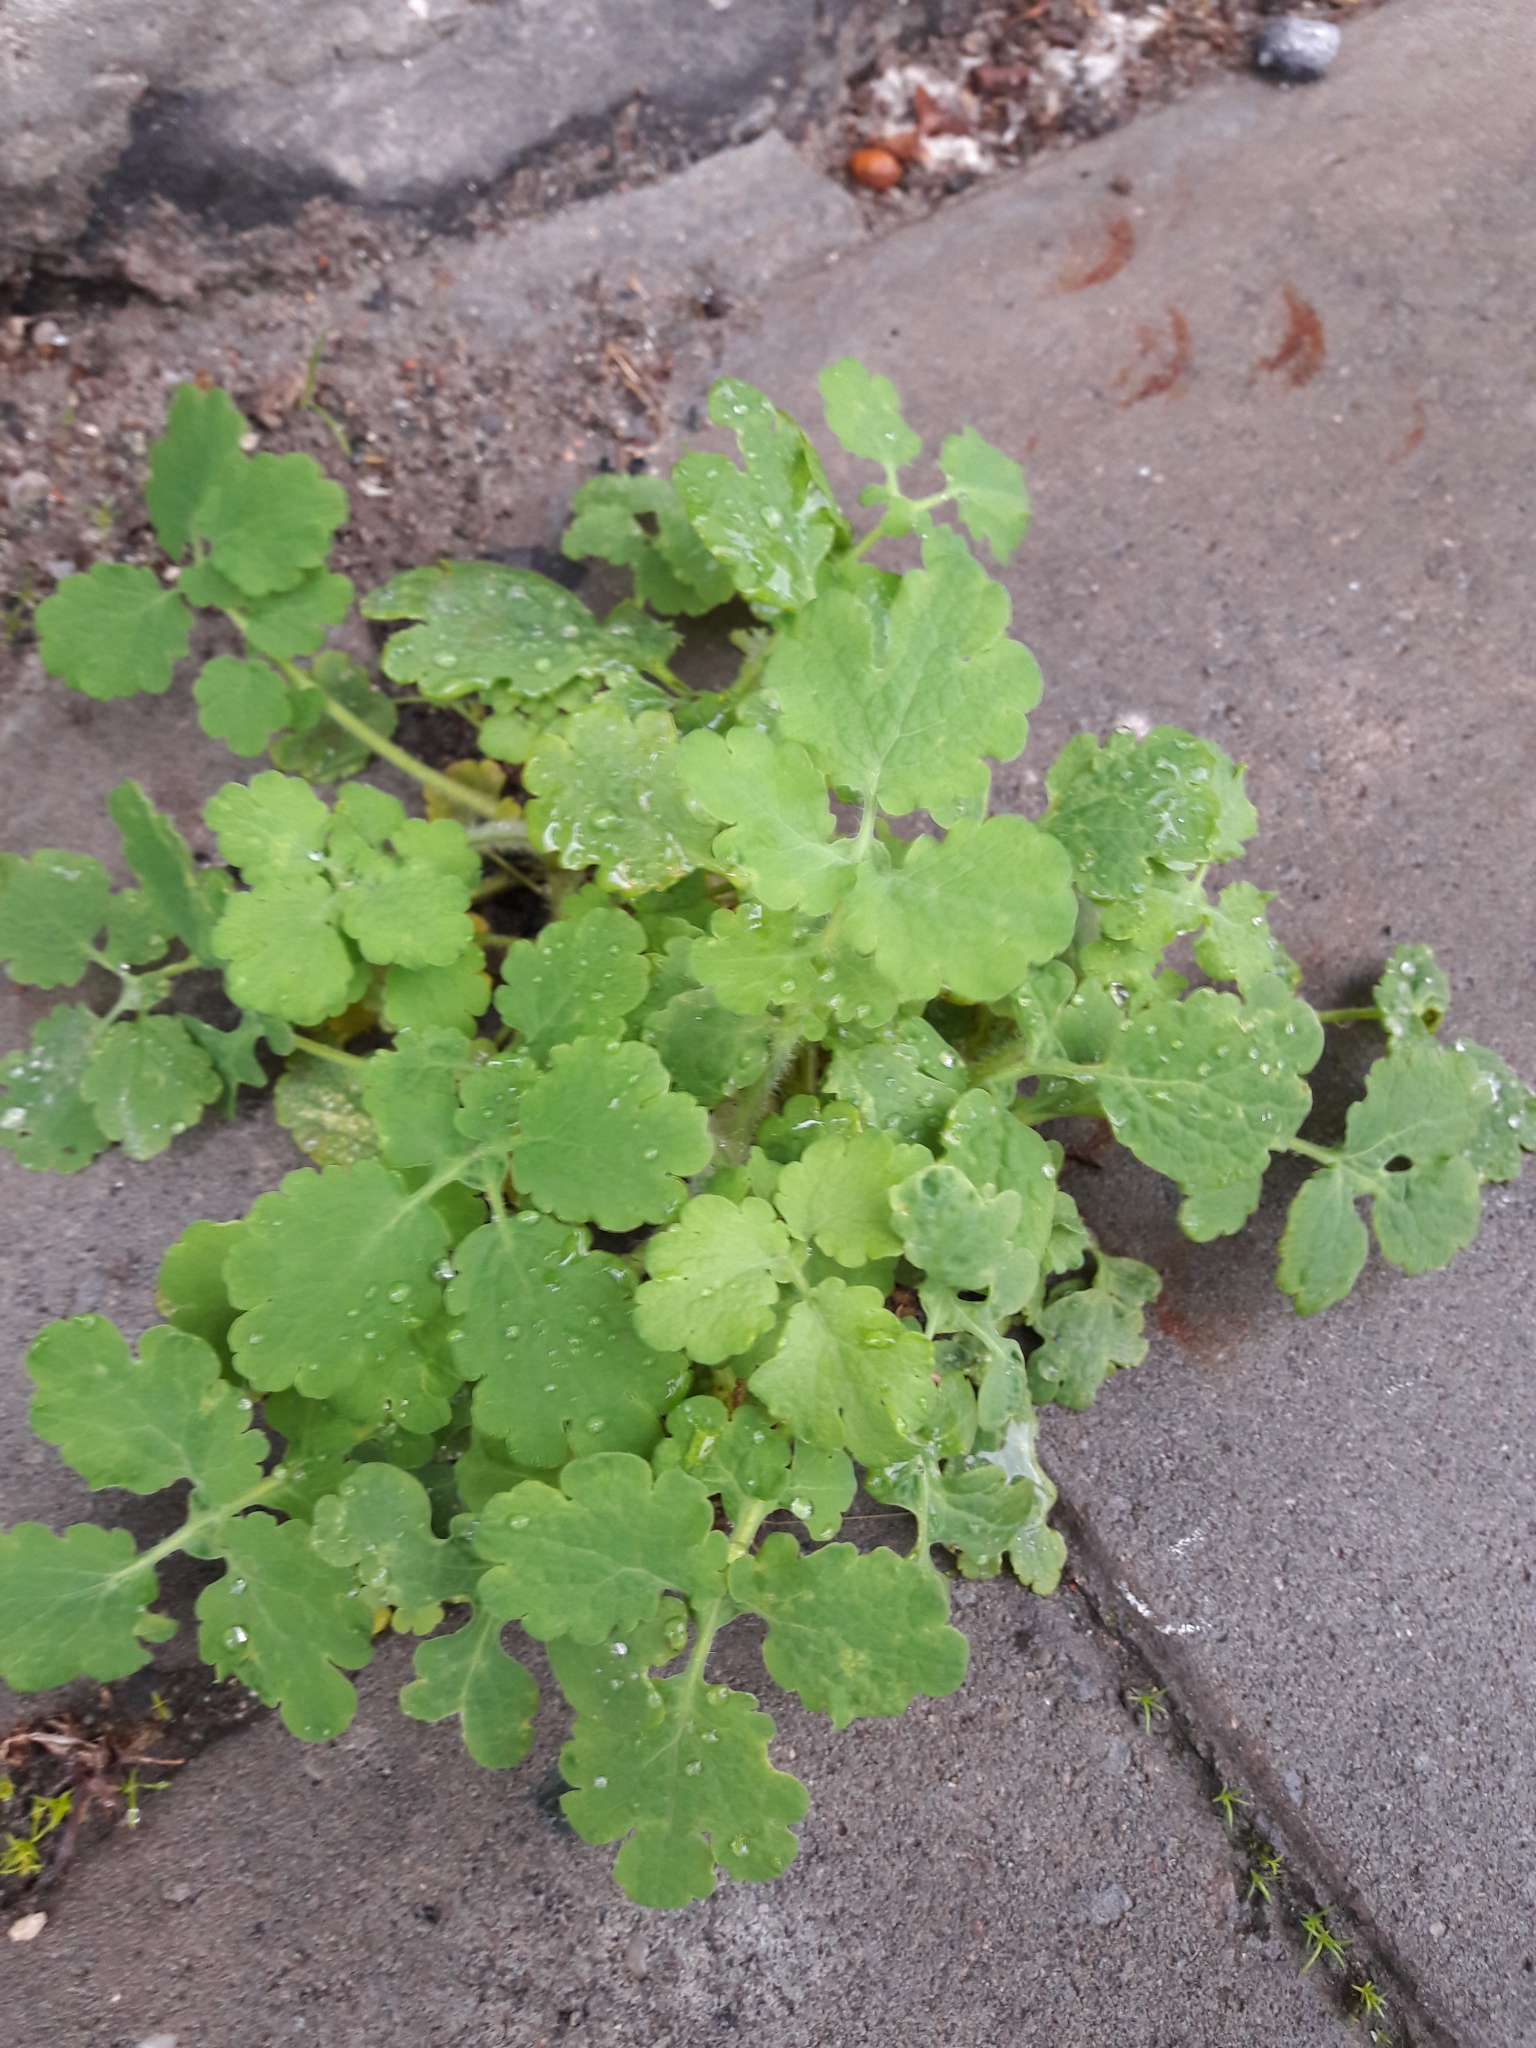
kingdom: Plantae
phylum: Tracheophyta
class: Magnoliopsida
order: Ranunculales
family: Papaveraceae
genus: Chelidonium
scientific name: Chelidonium majus
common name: Greater celandine
